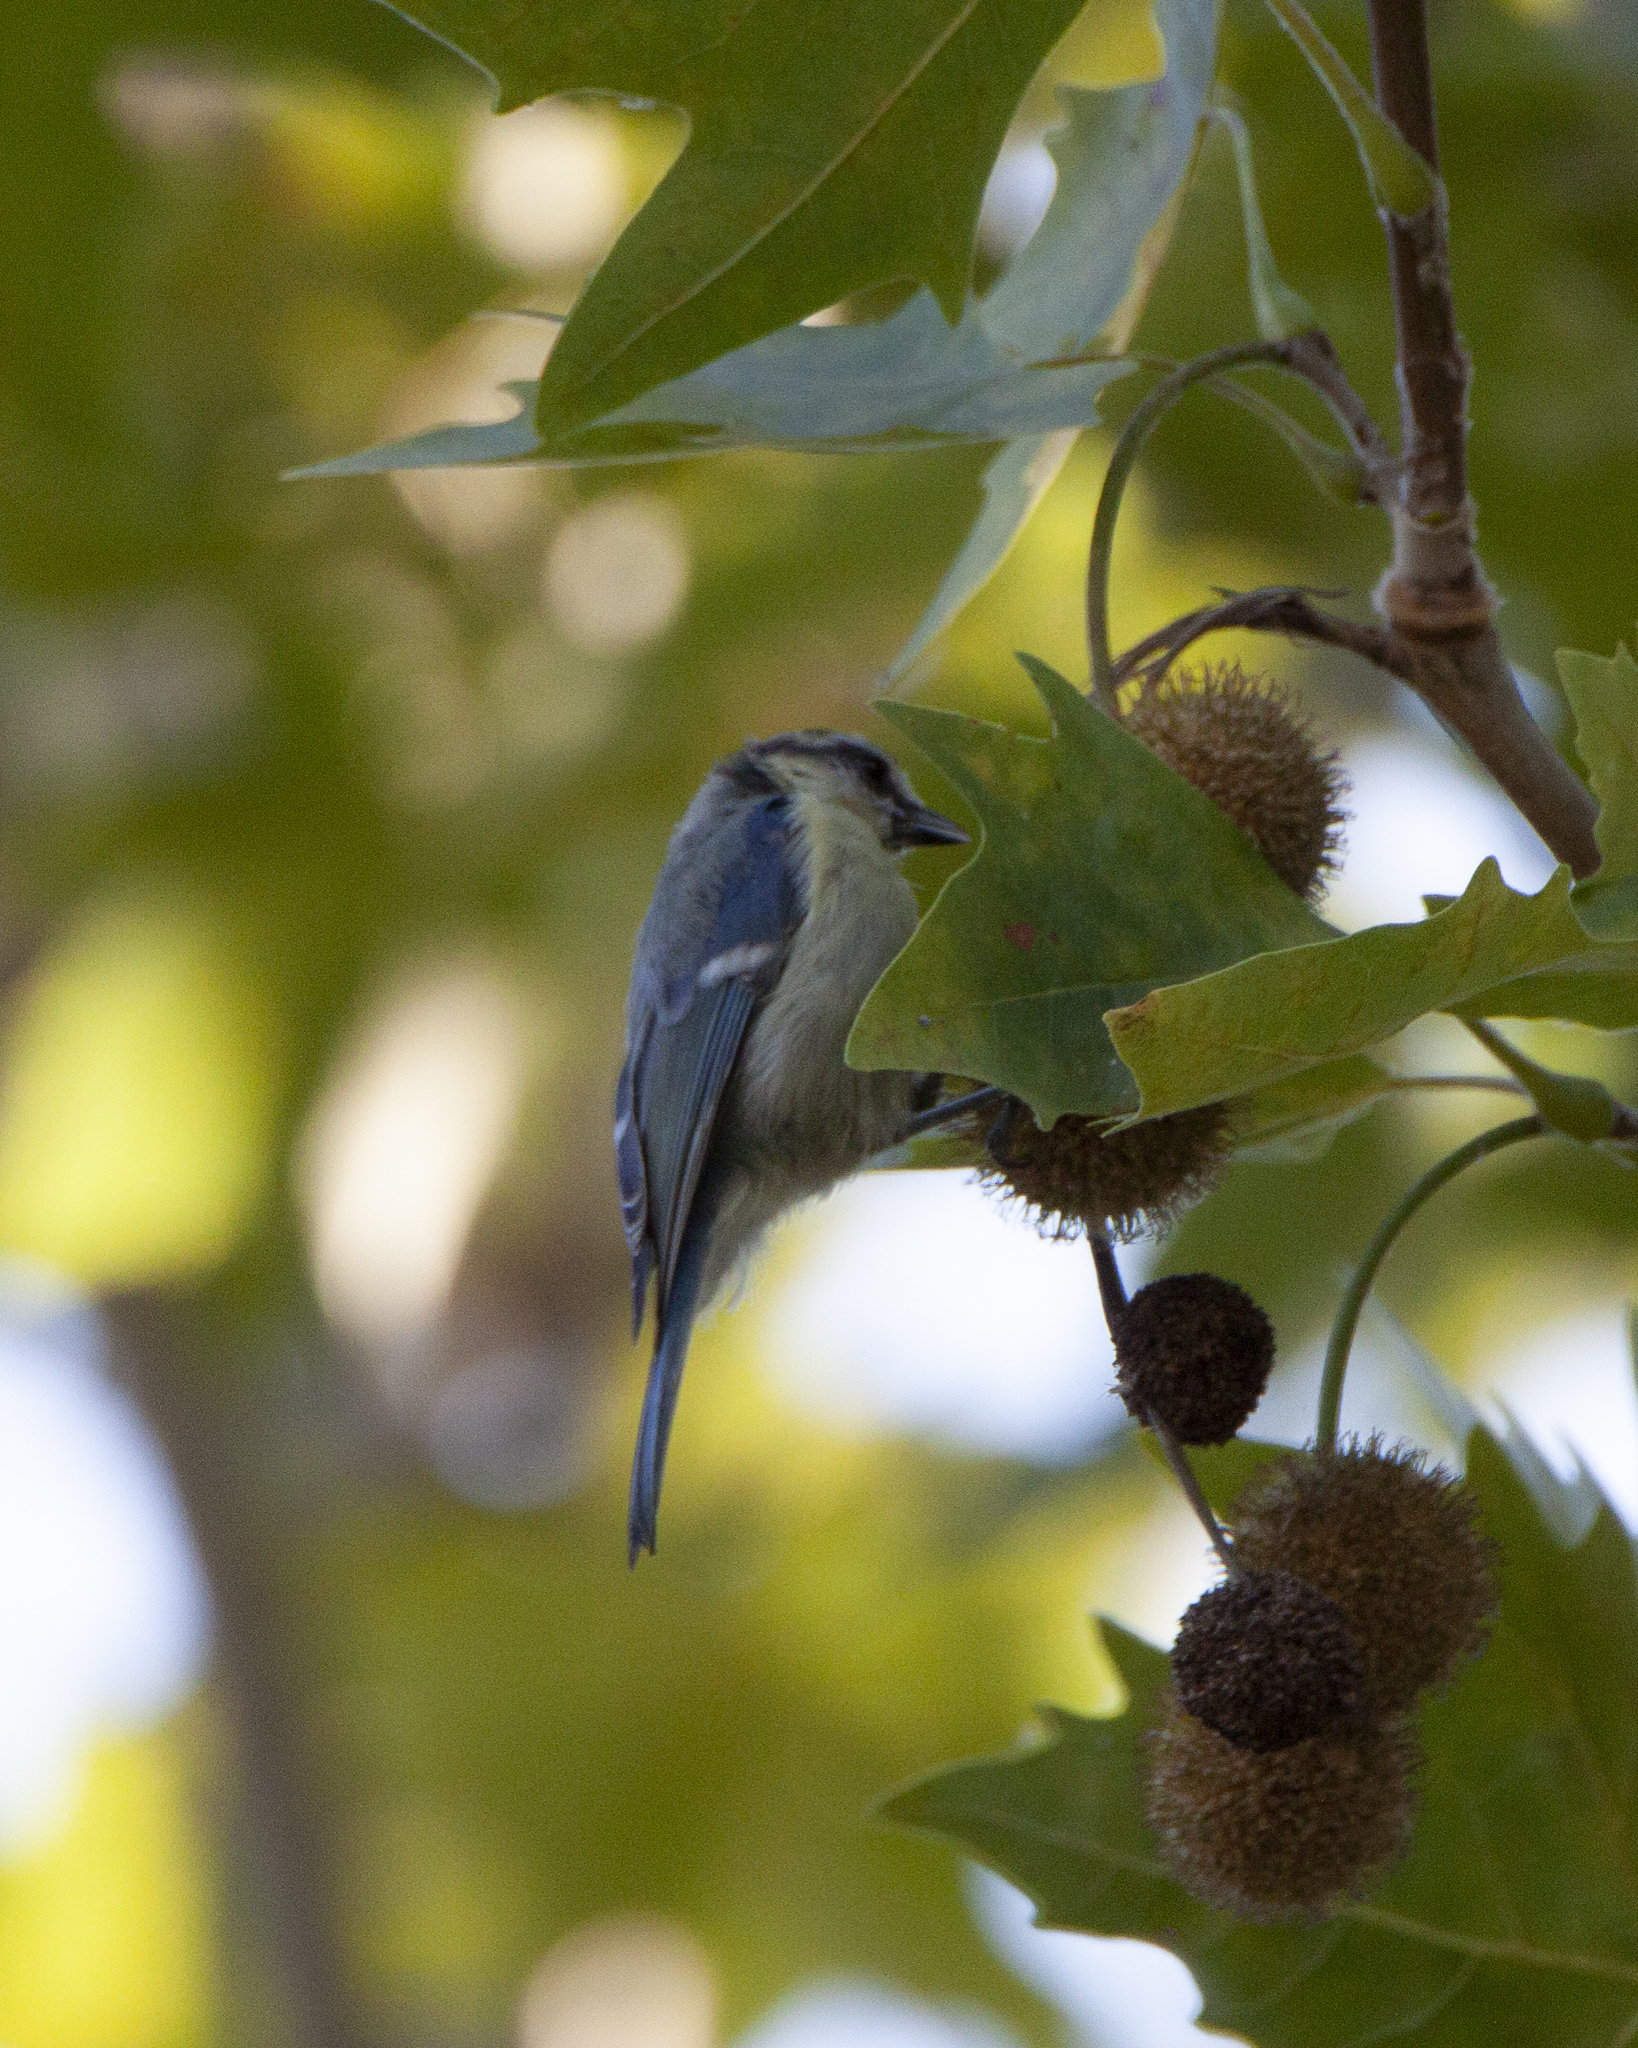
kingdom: Animalia
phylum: Chordata
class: Aves
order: Passeriformes
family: Paridae
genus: Cyanistes
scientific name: Cyanistes caeruleus
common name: Eurasian blue tit
